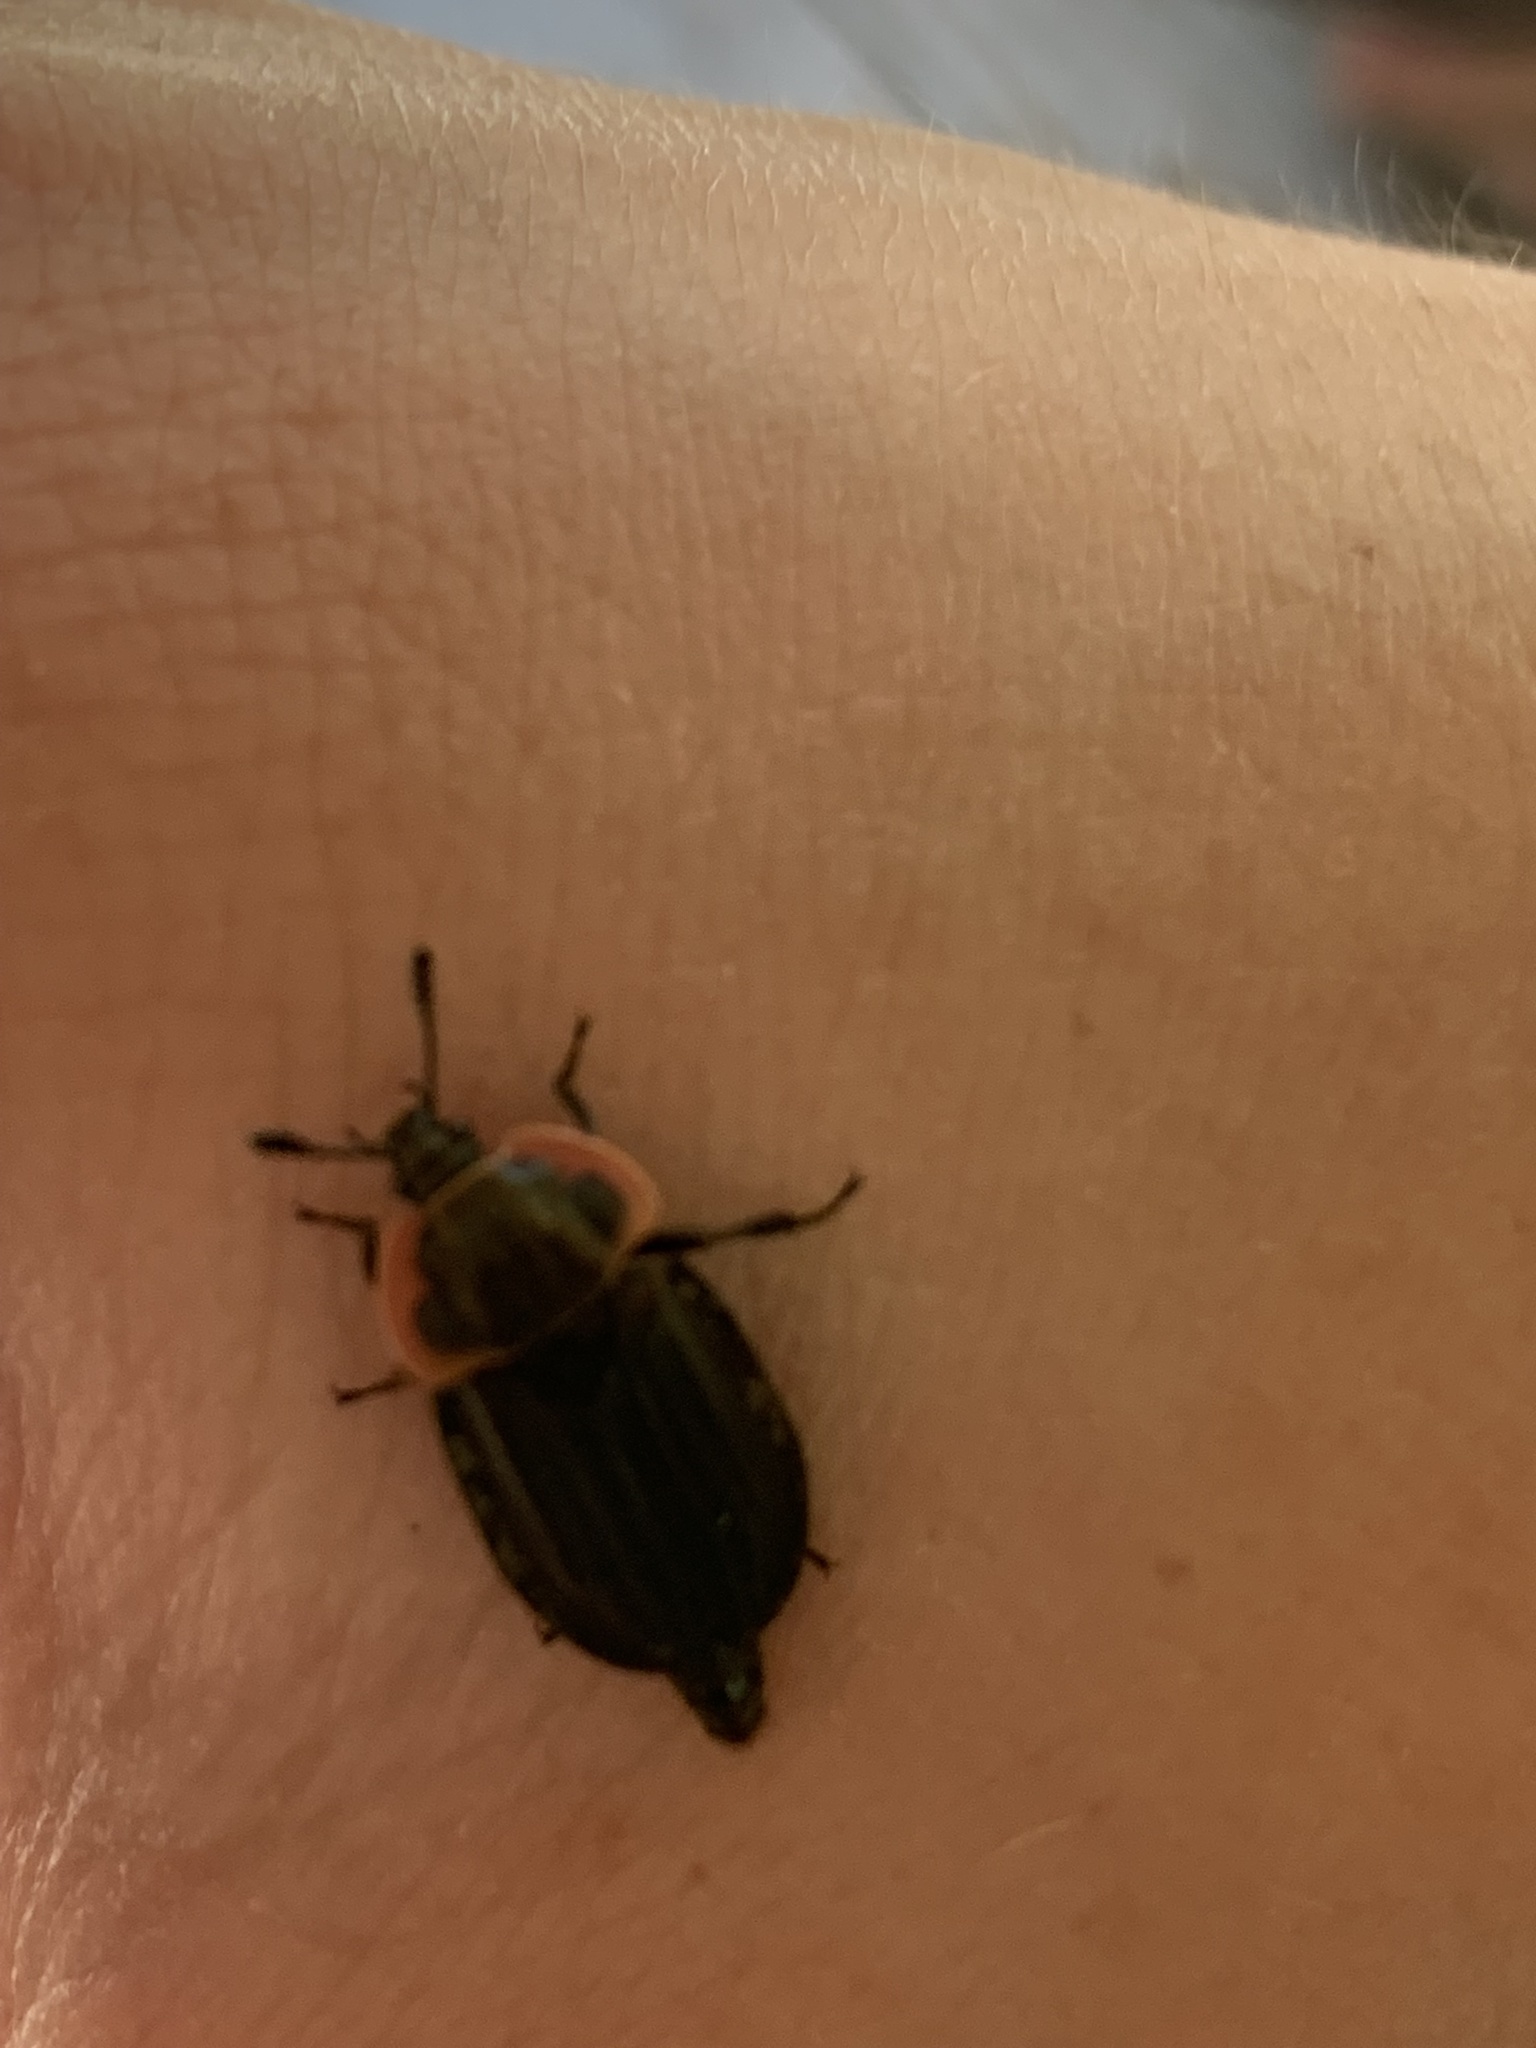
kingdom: Animalia
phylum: Arthropoda
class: Insecta
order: Coleoptera
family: Staphylinidae
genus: Oiceoptoma
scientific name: Oiceoptoma noveboracense
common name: Margined carrion beetle
